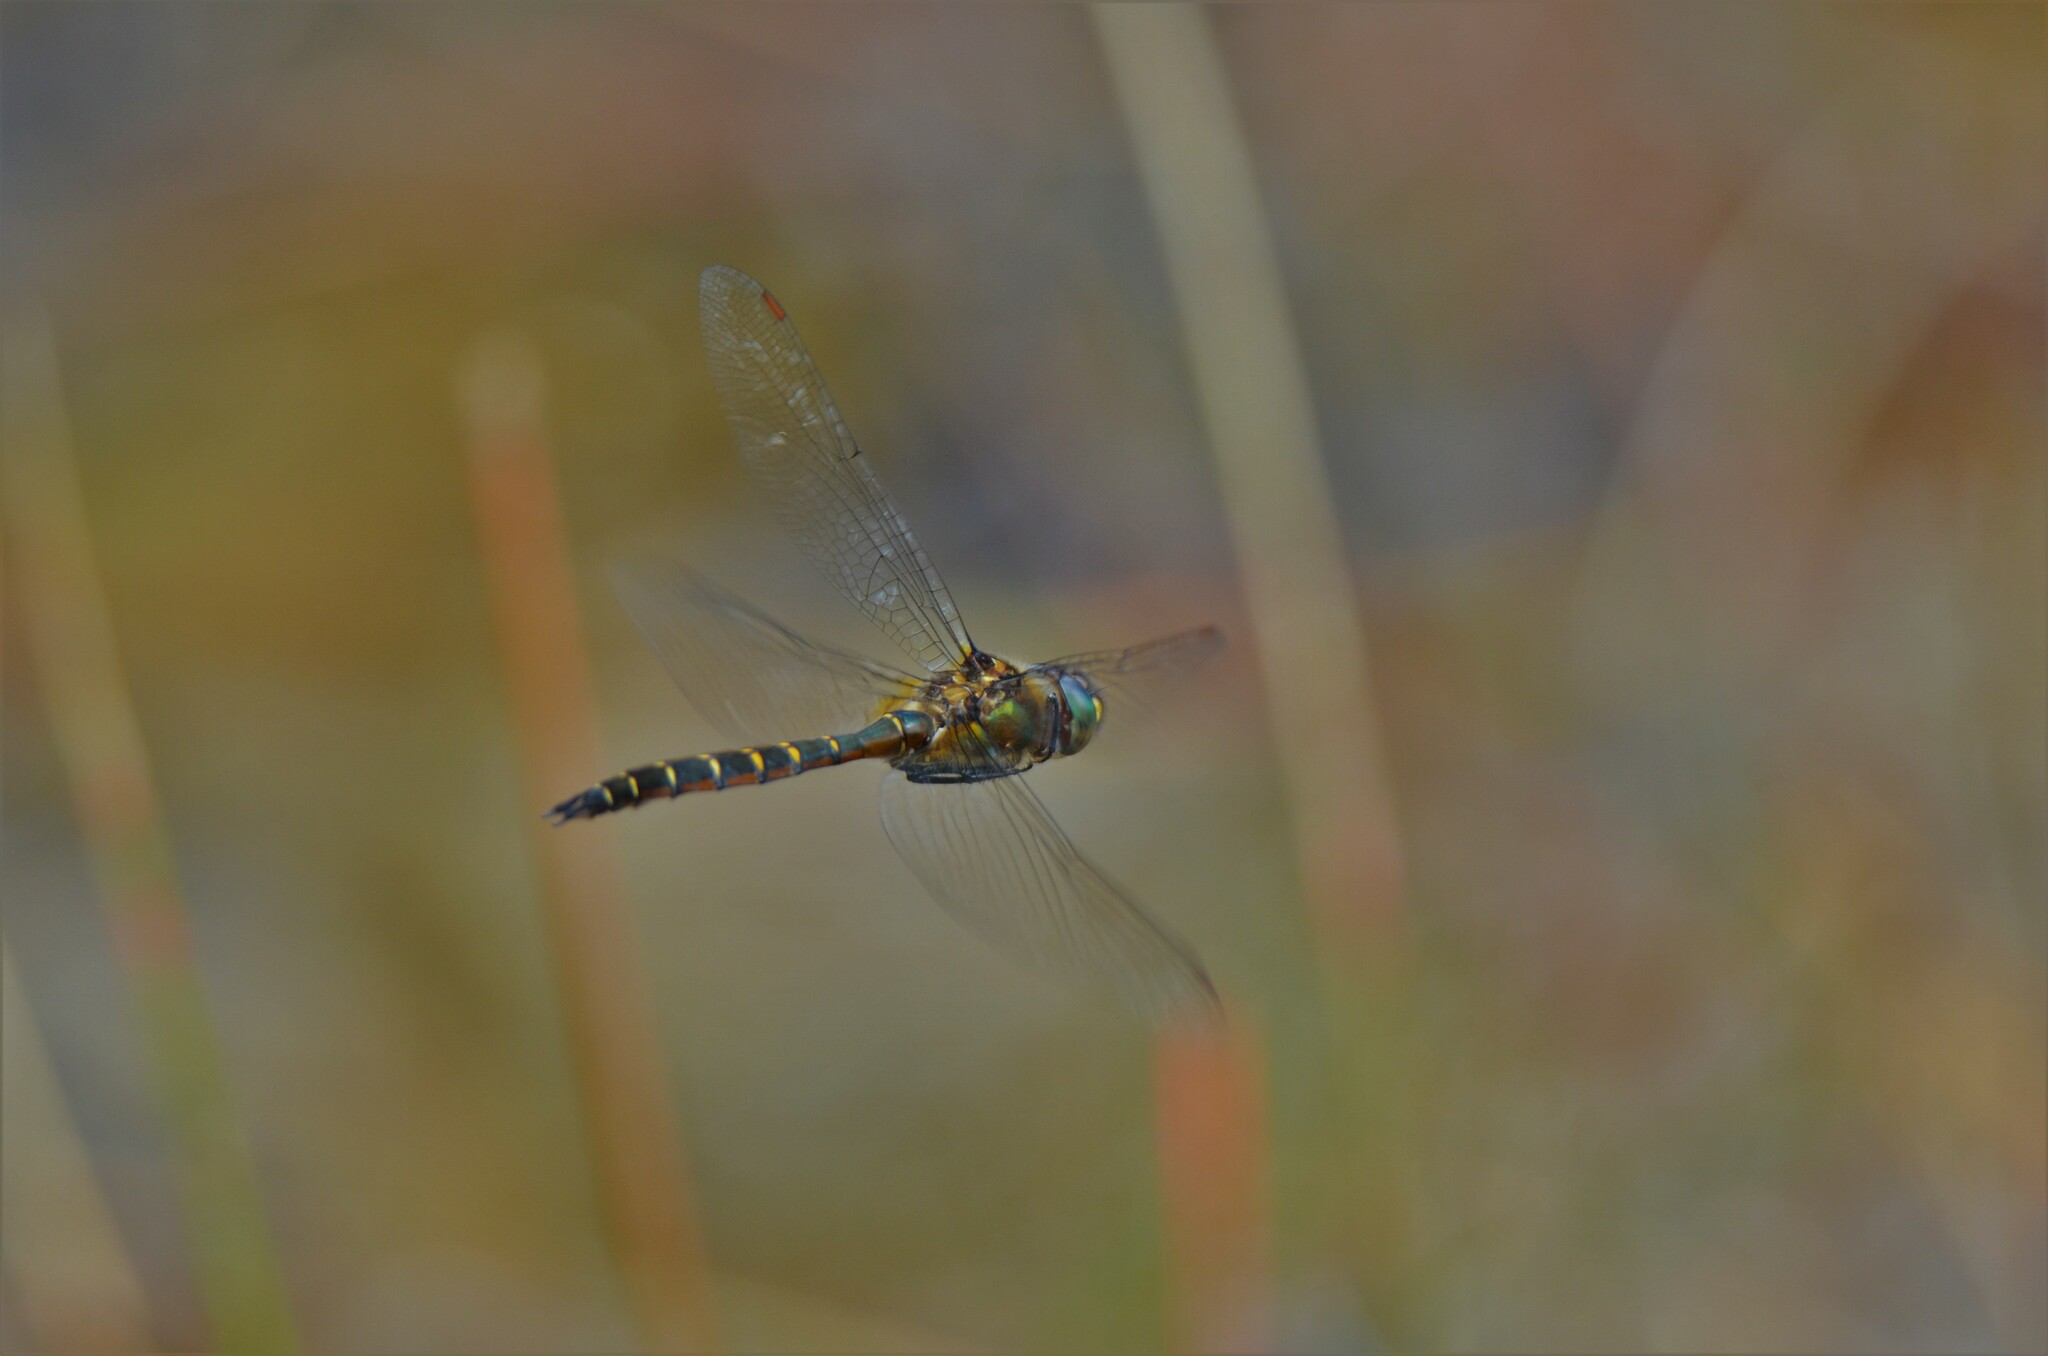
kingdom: Animalia
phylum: Arthropoda
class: Insecta
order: Odonata
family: Corduliidae
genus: Procordulia
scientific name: Procordulia smithii
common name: Ranger dragonfly
